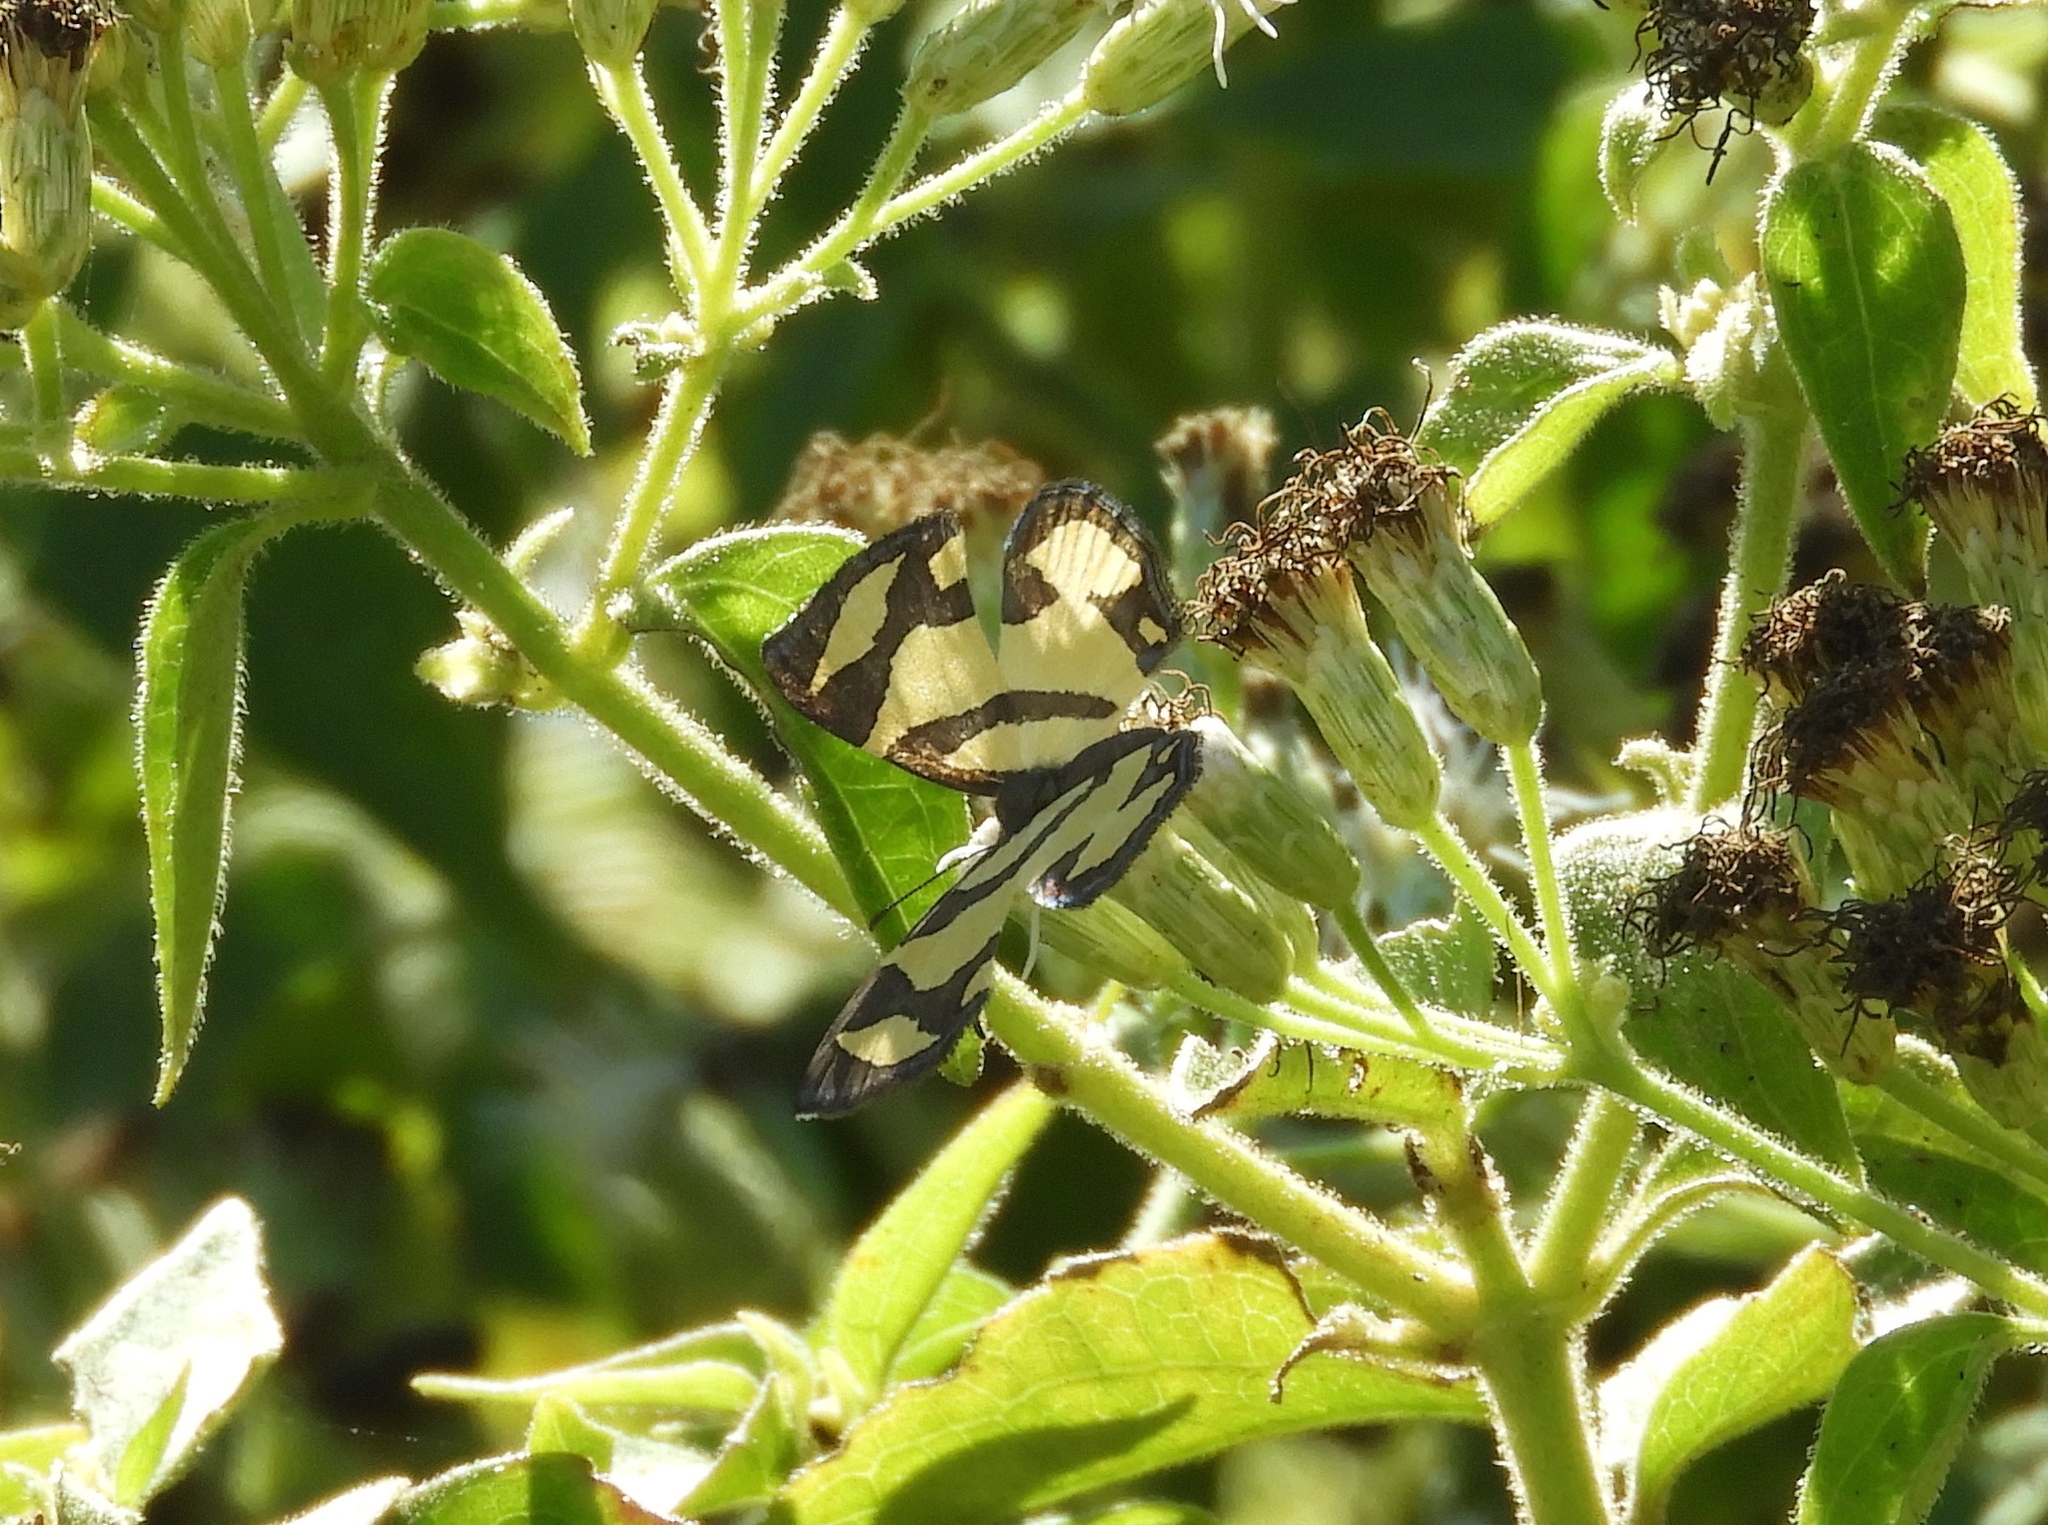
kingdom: Animalia
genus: Baeotis
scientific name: Baeotis zonata
